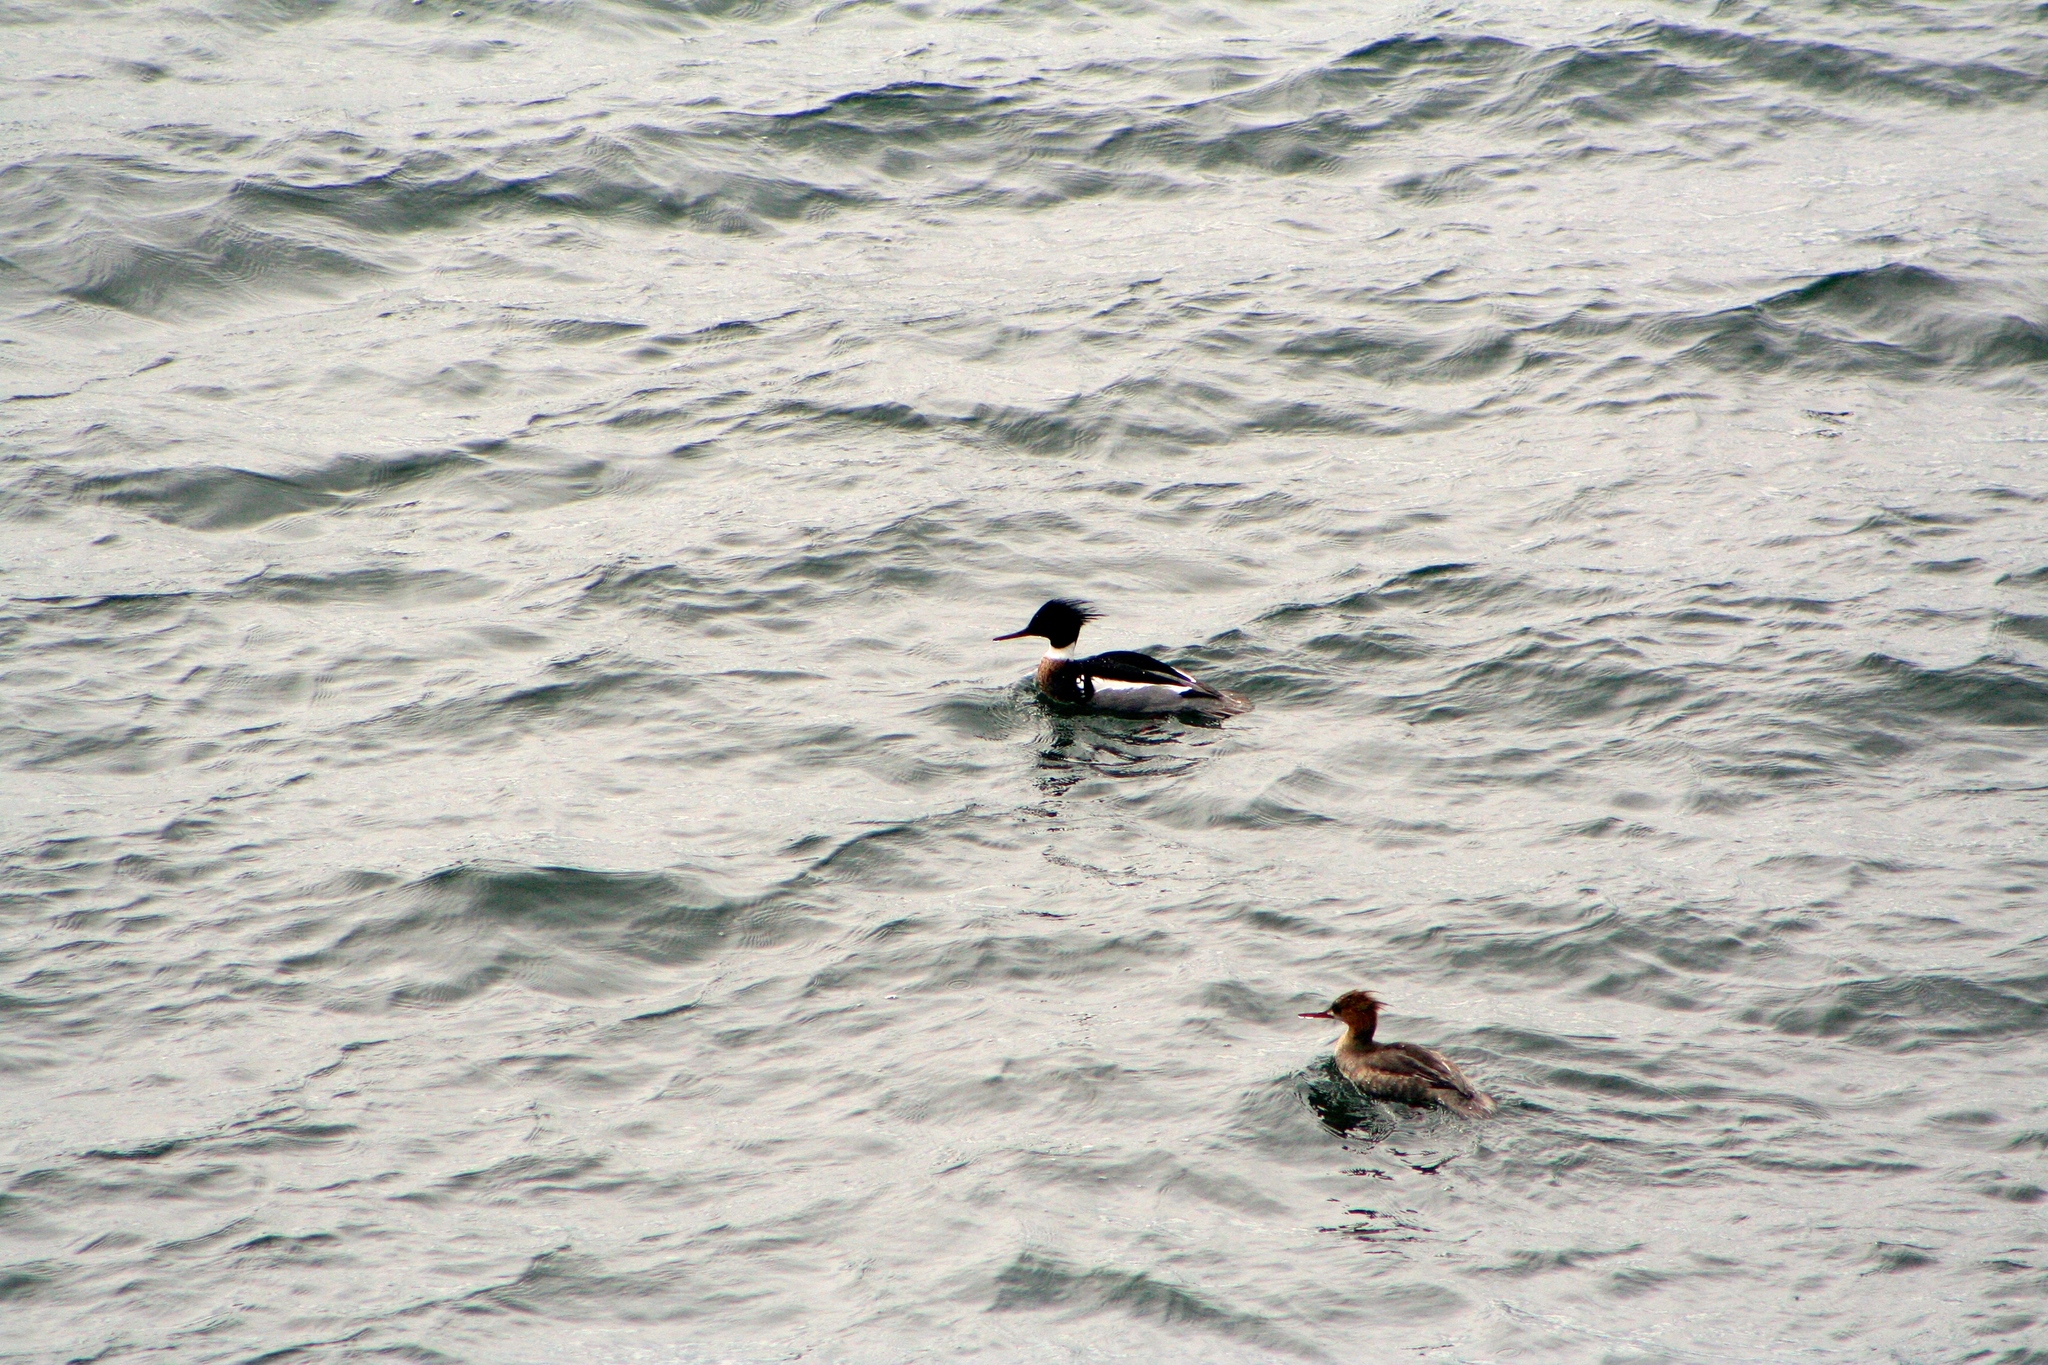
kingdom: Animalia
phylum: Chordata
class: Aves
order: Anseriformes
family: Anatidae
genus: Mergus
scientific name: Mergus serrator
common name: Red-breasted merganser
